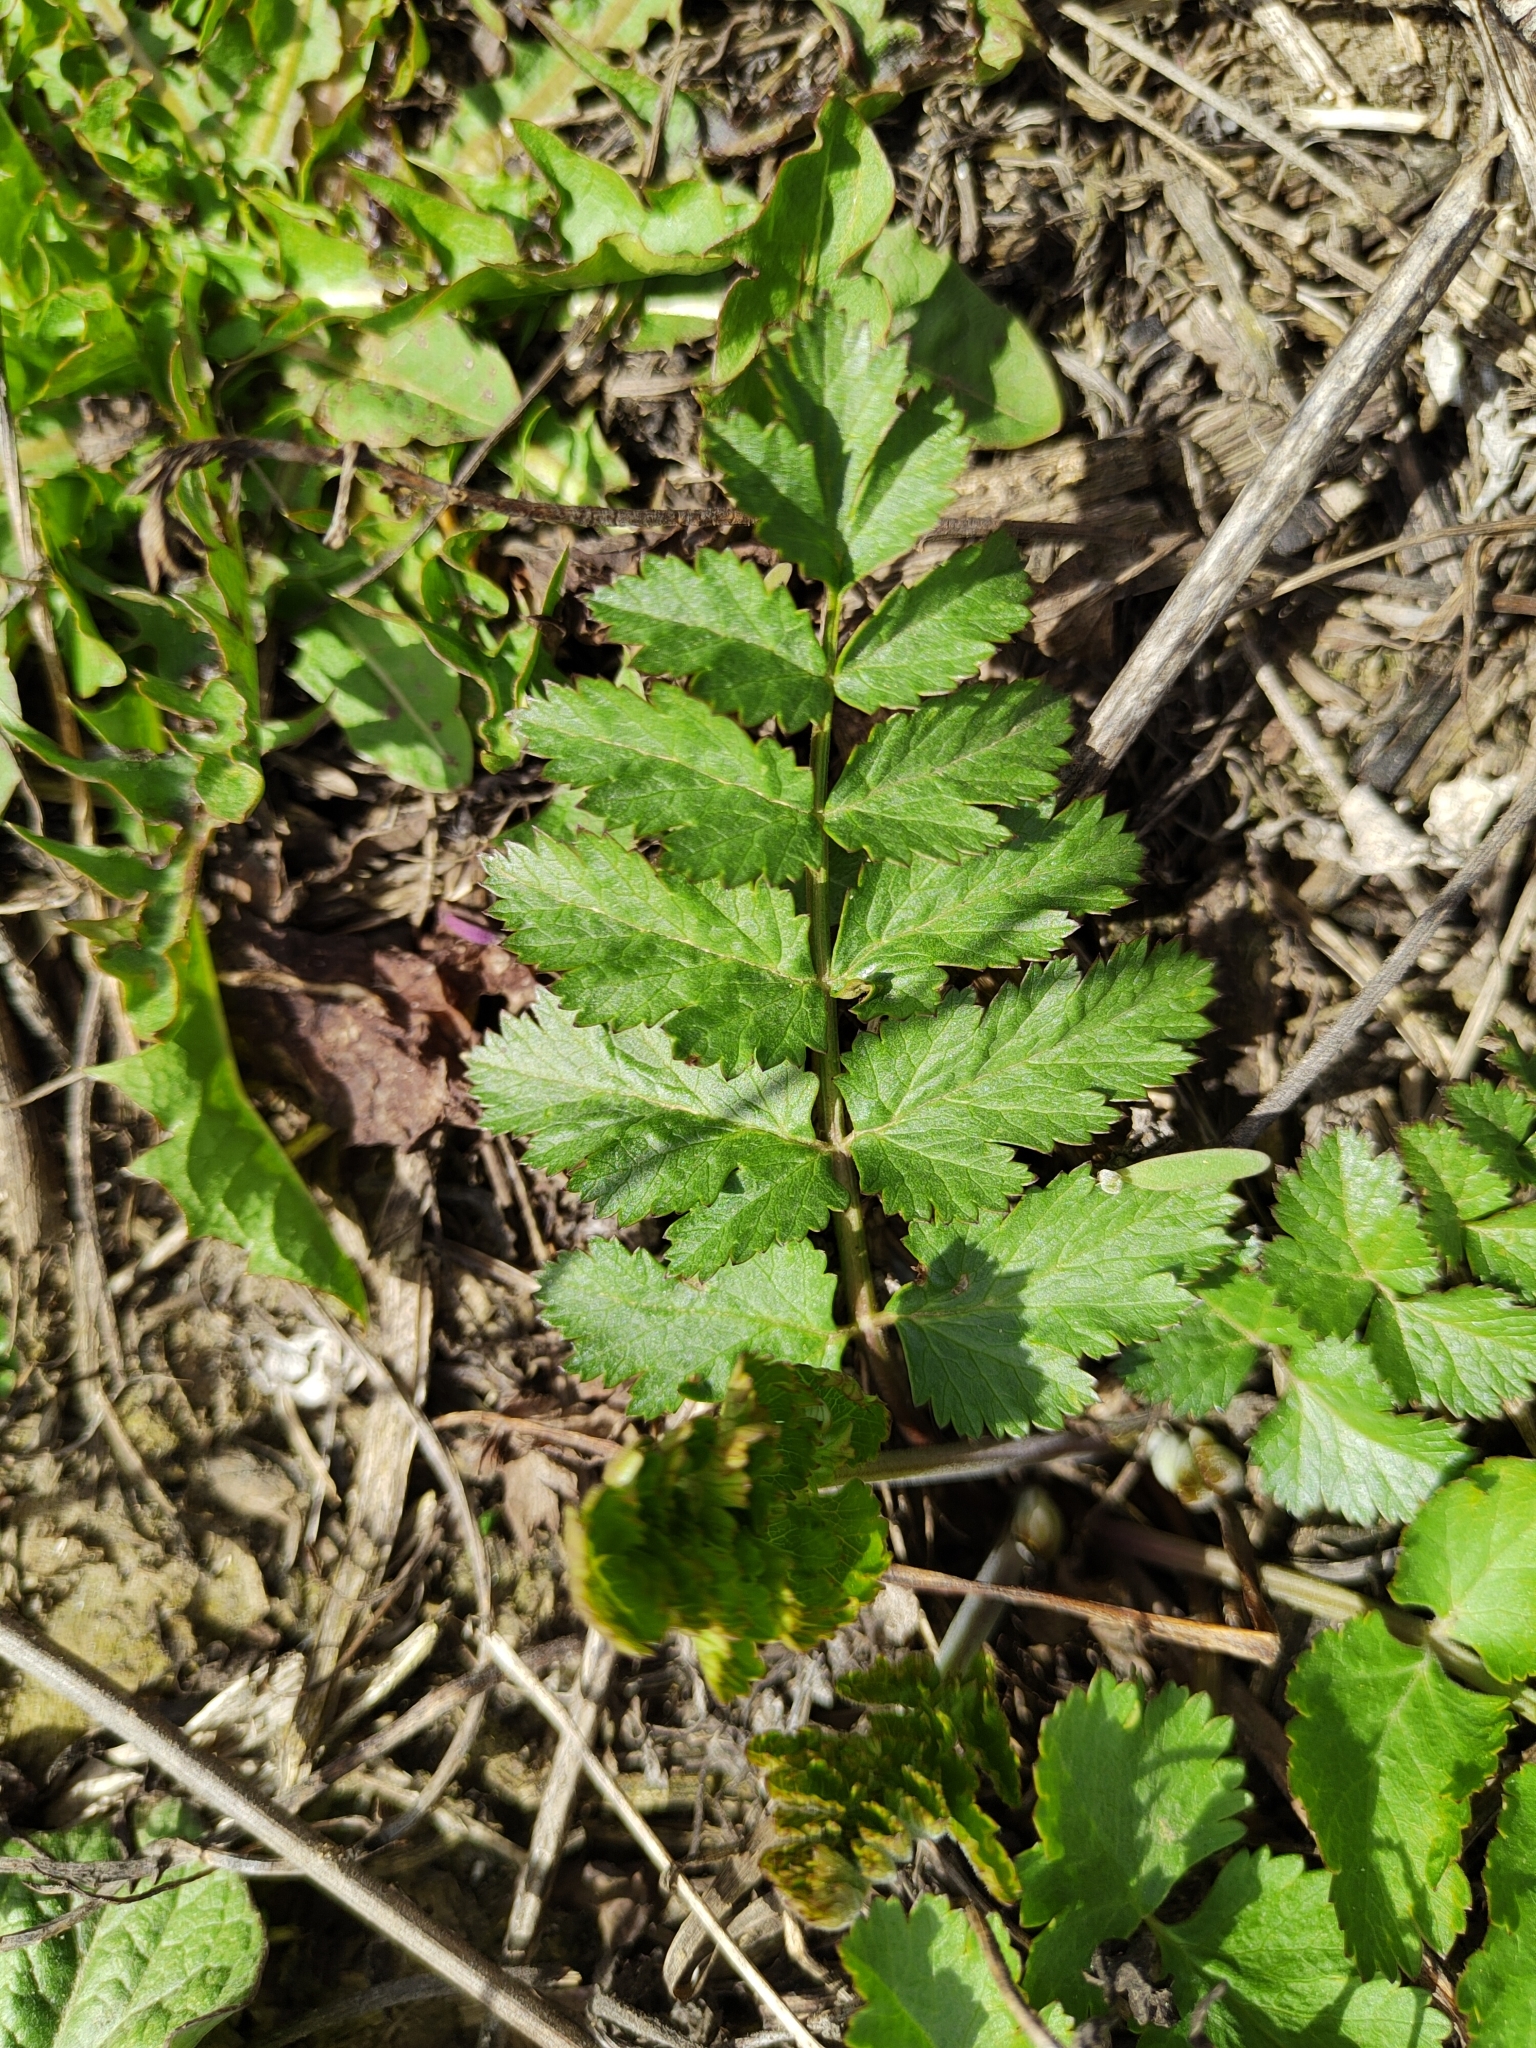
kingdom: Plantae
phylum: Tracheophyta
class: Magnoliopsida
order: Apiales
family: Apiaceae
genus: Pimpinella
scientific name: Pimpinella saxifraga
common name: Burnet-saxifrage
